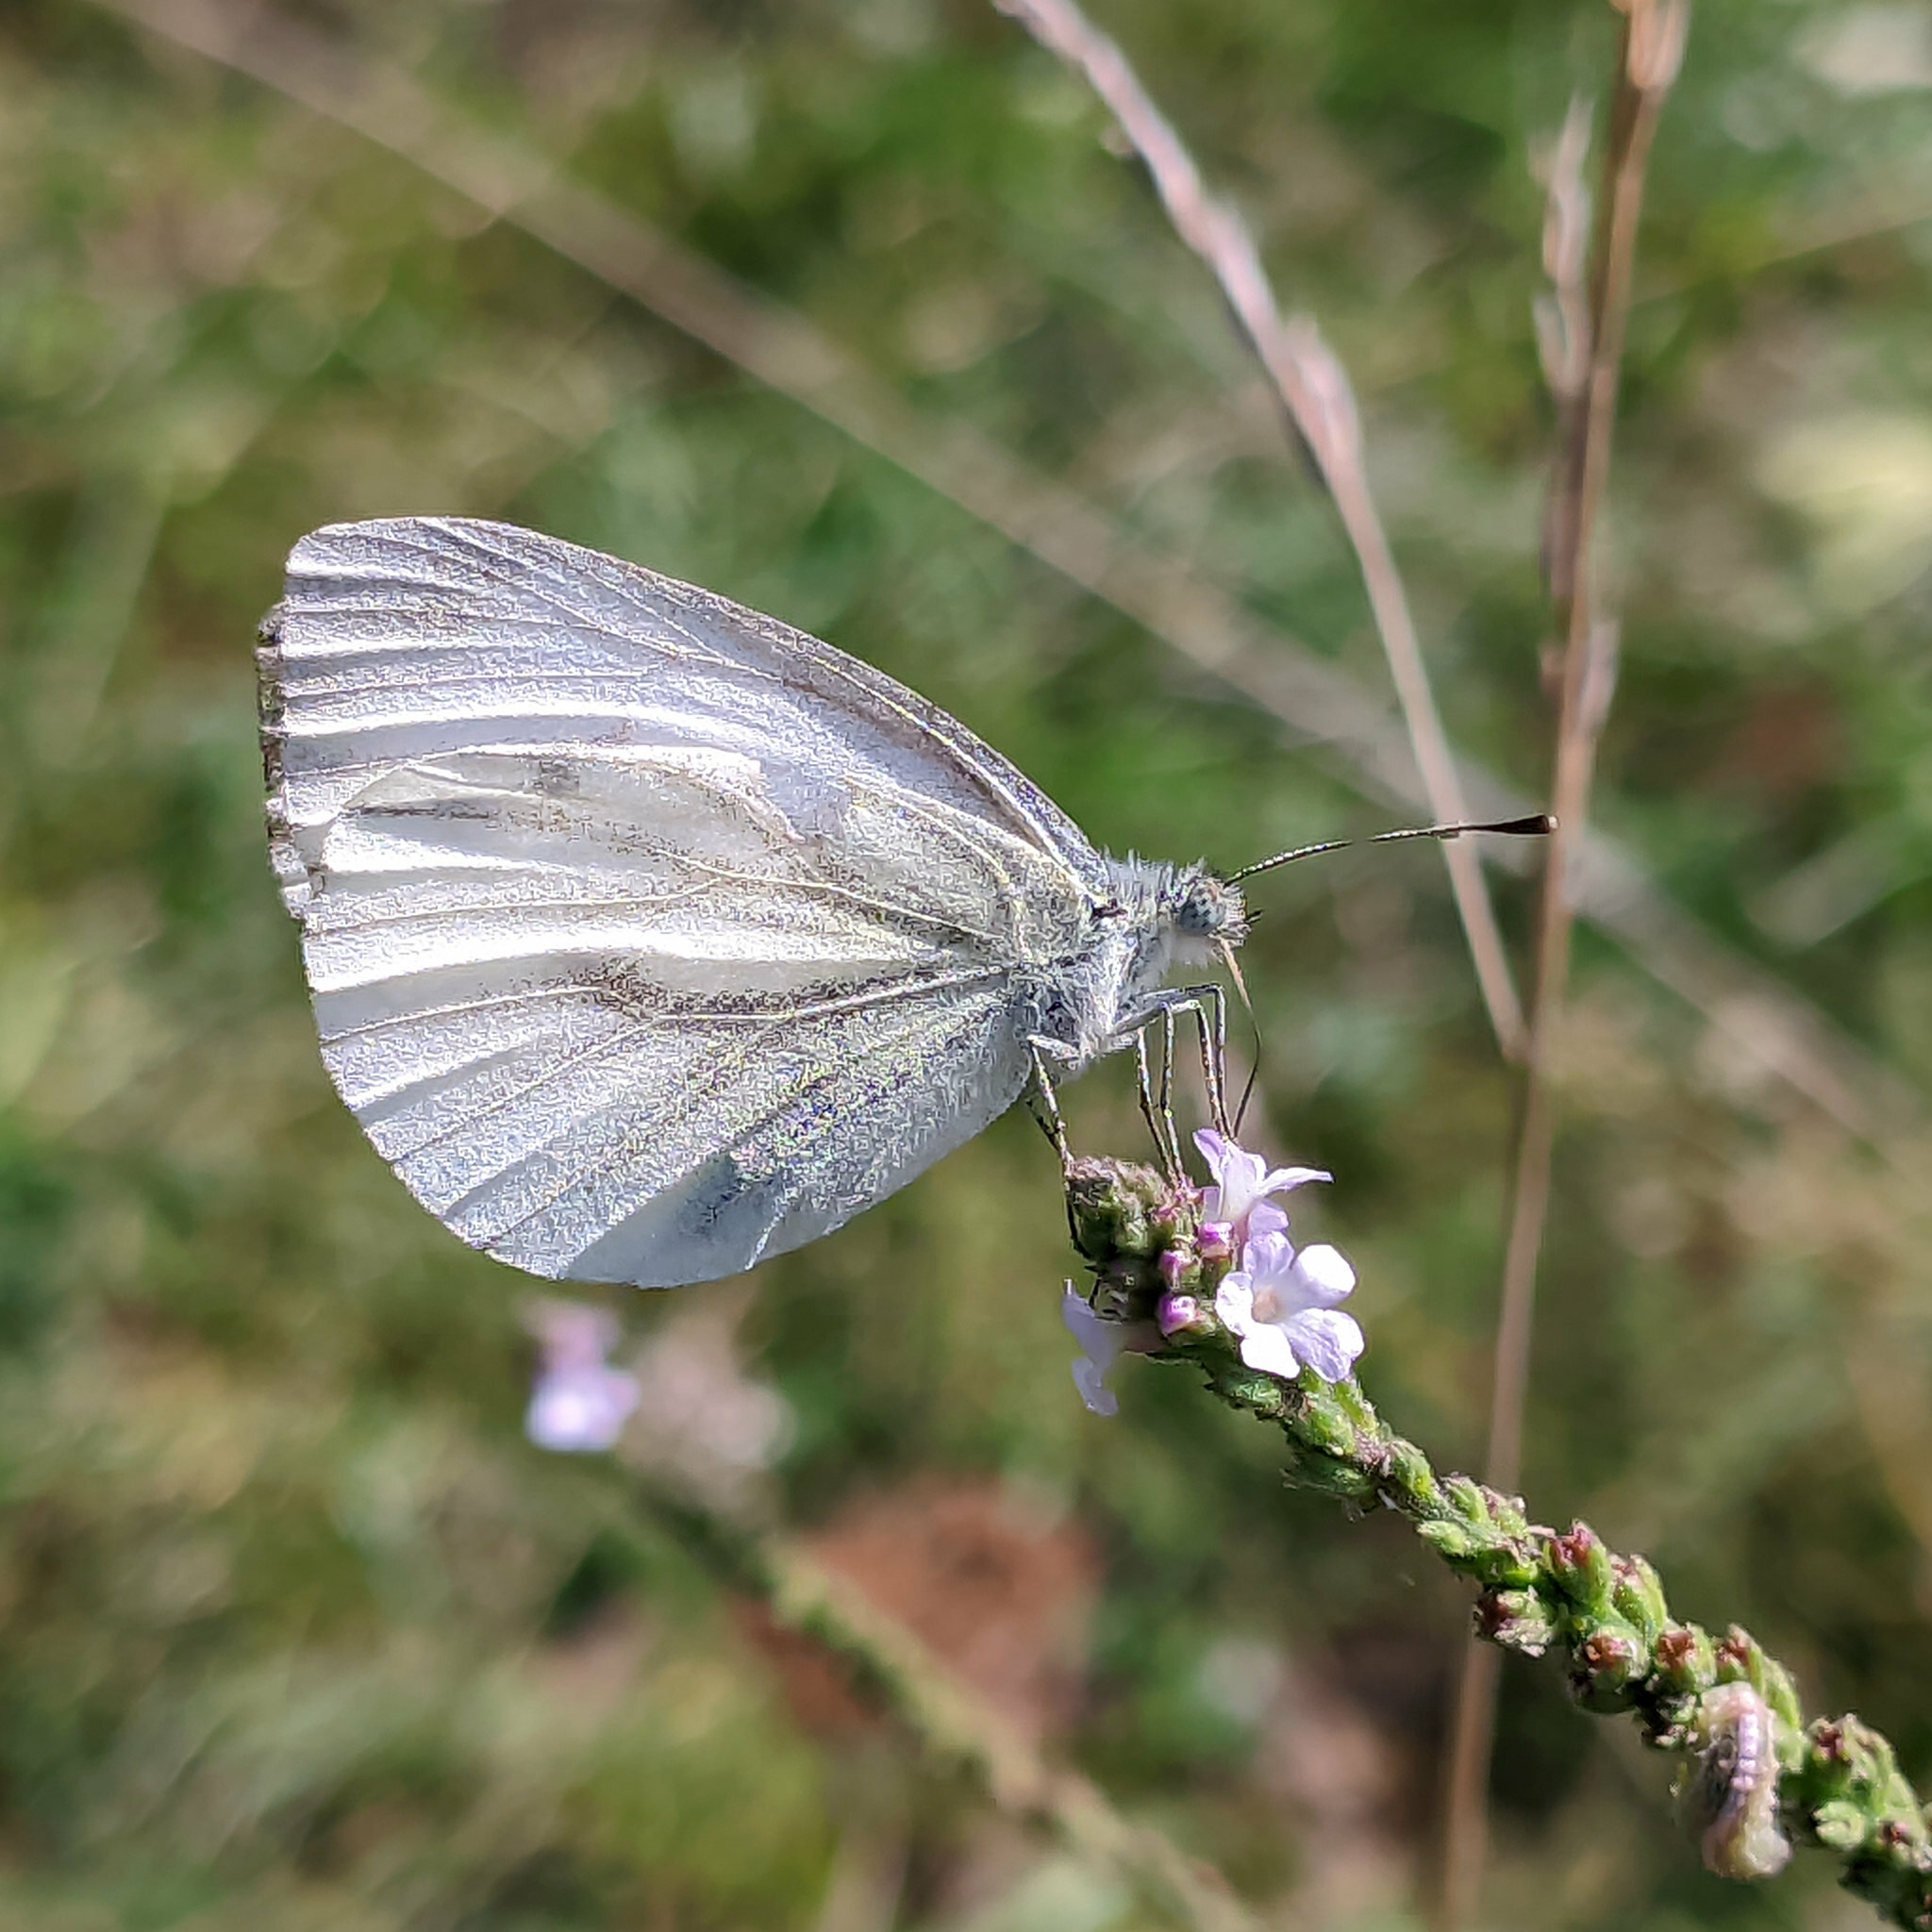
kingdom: Animalia
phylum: Arthropoda
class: Insecta
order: Lepidoptera
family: Pieridae
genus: Pieris
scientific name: Pieris napi
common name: Green-veined white
